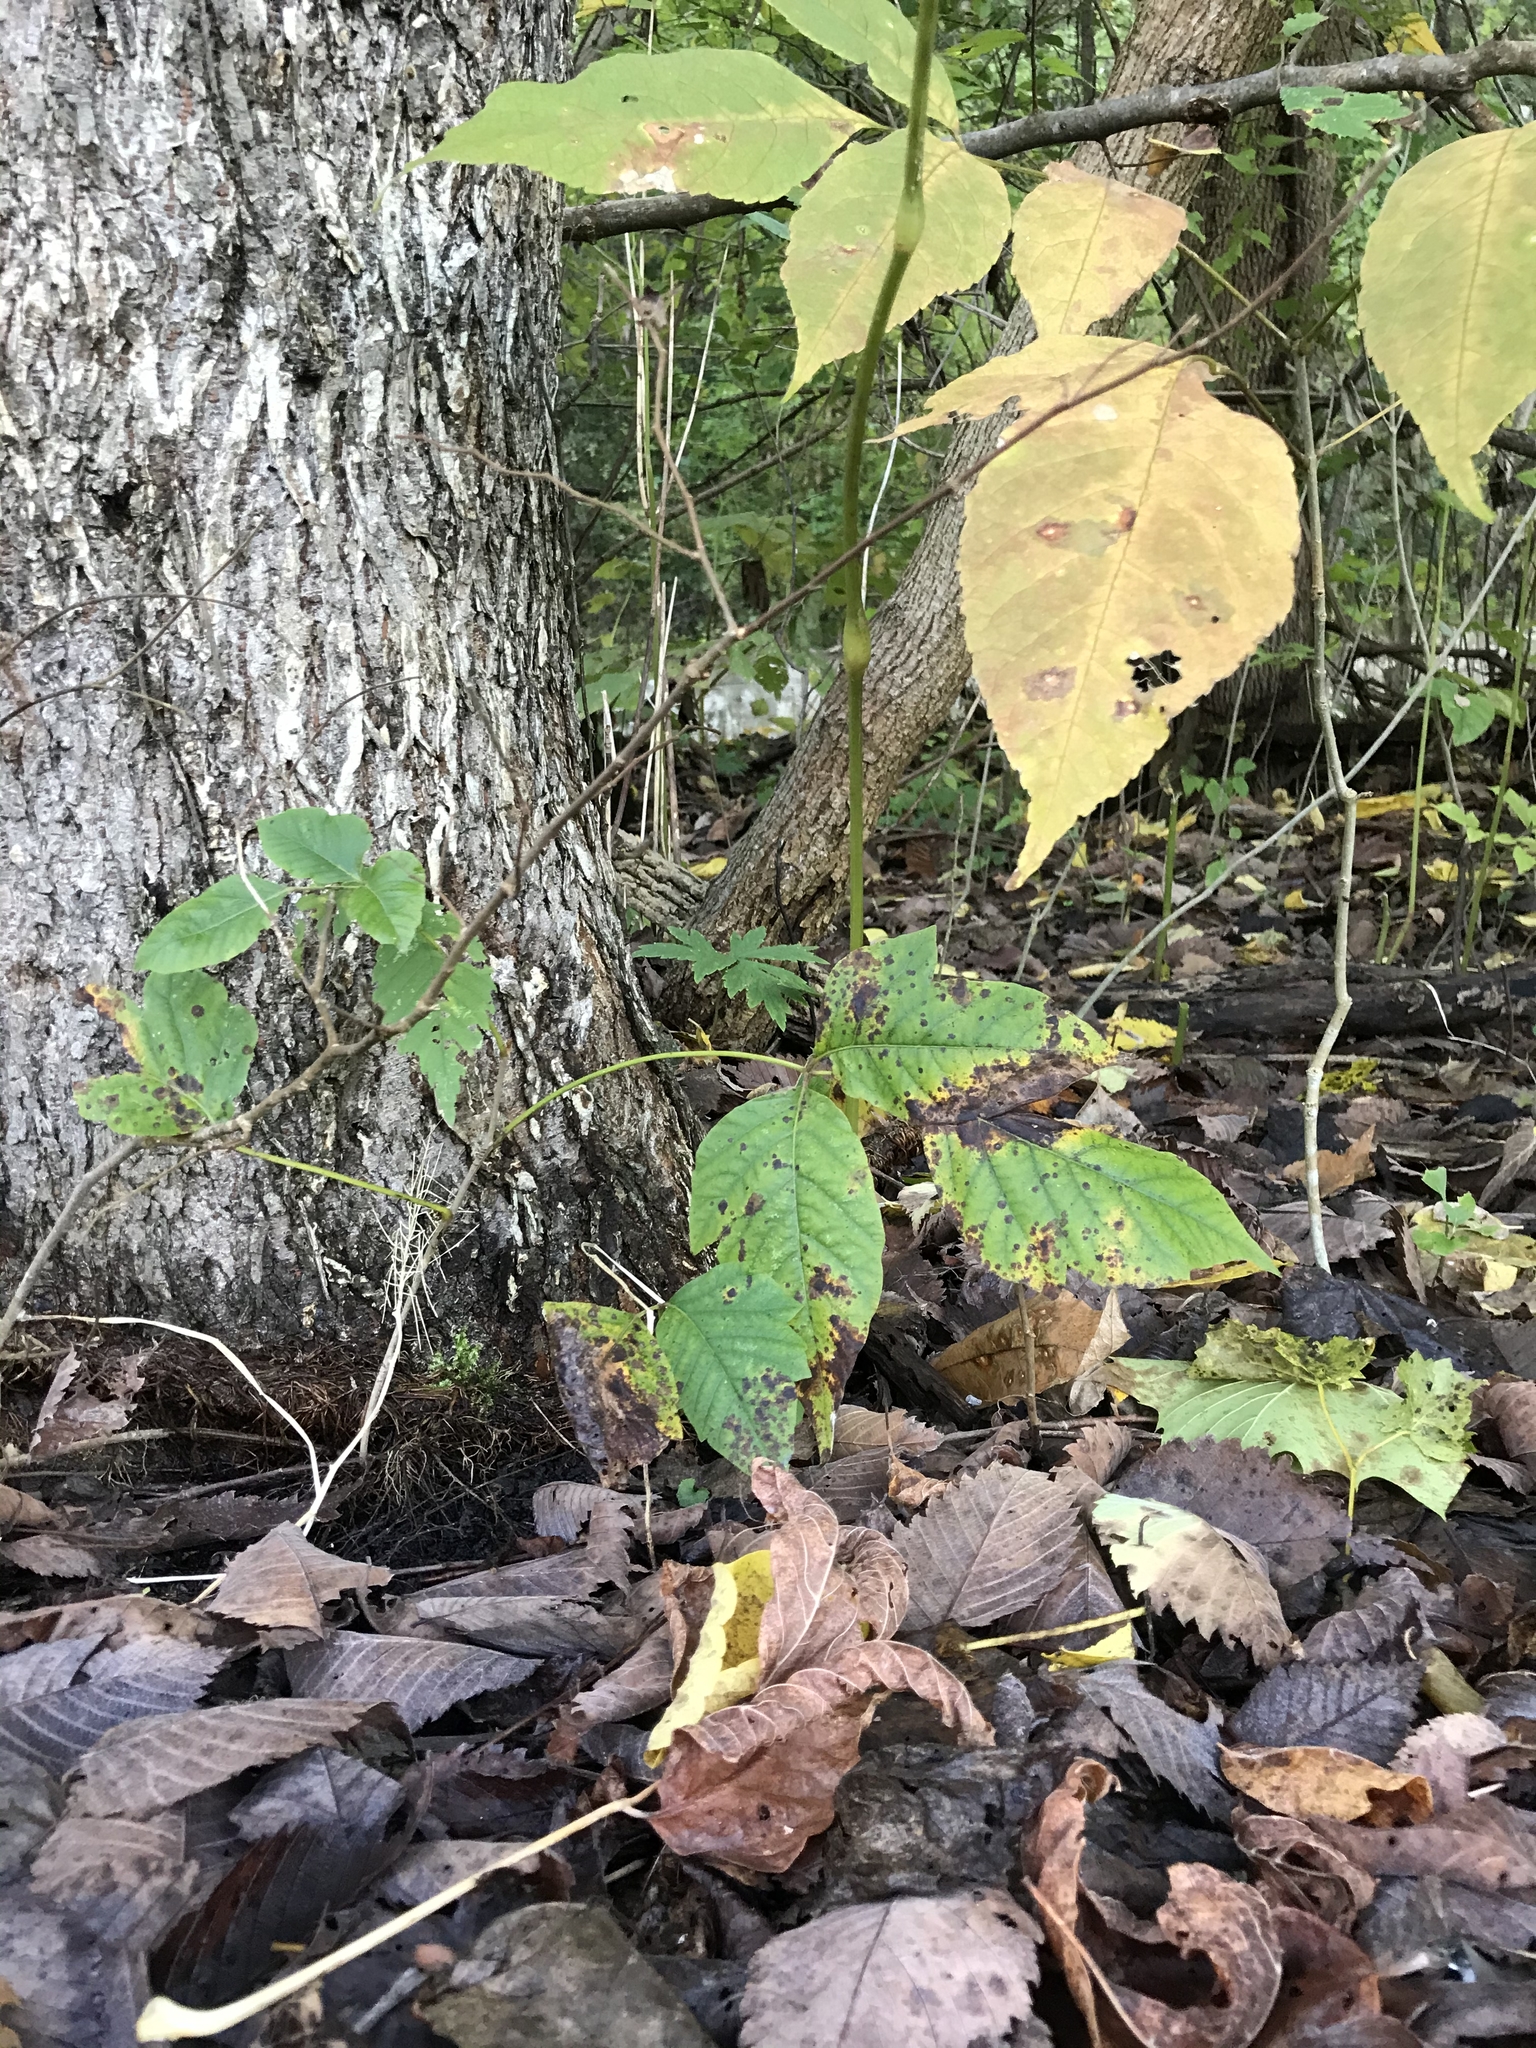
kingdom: Plantae
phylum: Tracheophyta
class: Magnoliopsida
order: Sapindales
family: Anacardiaceae
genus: Toxicodendron
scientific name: Toxicodendron radicans
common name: Poison ivy
